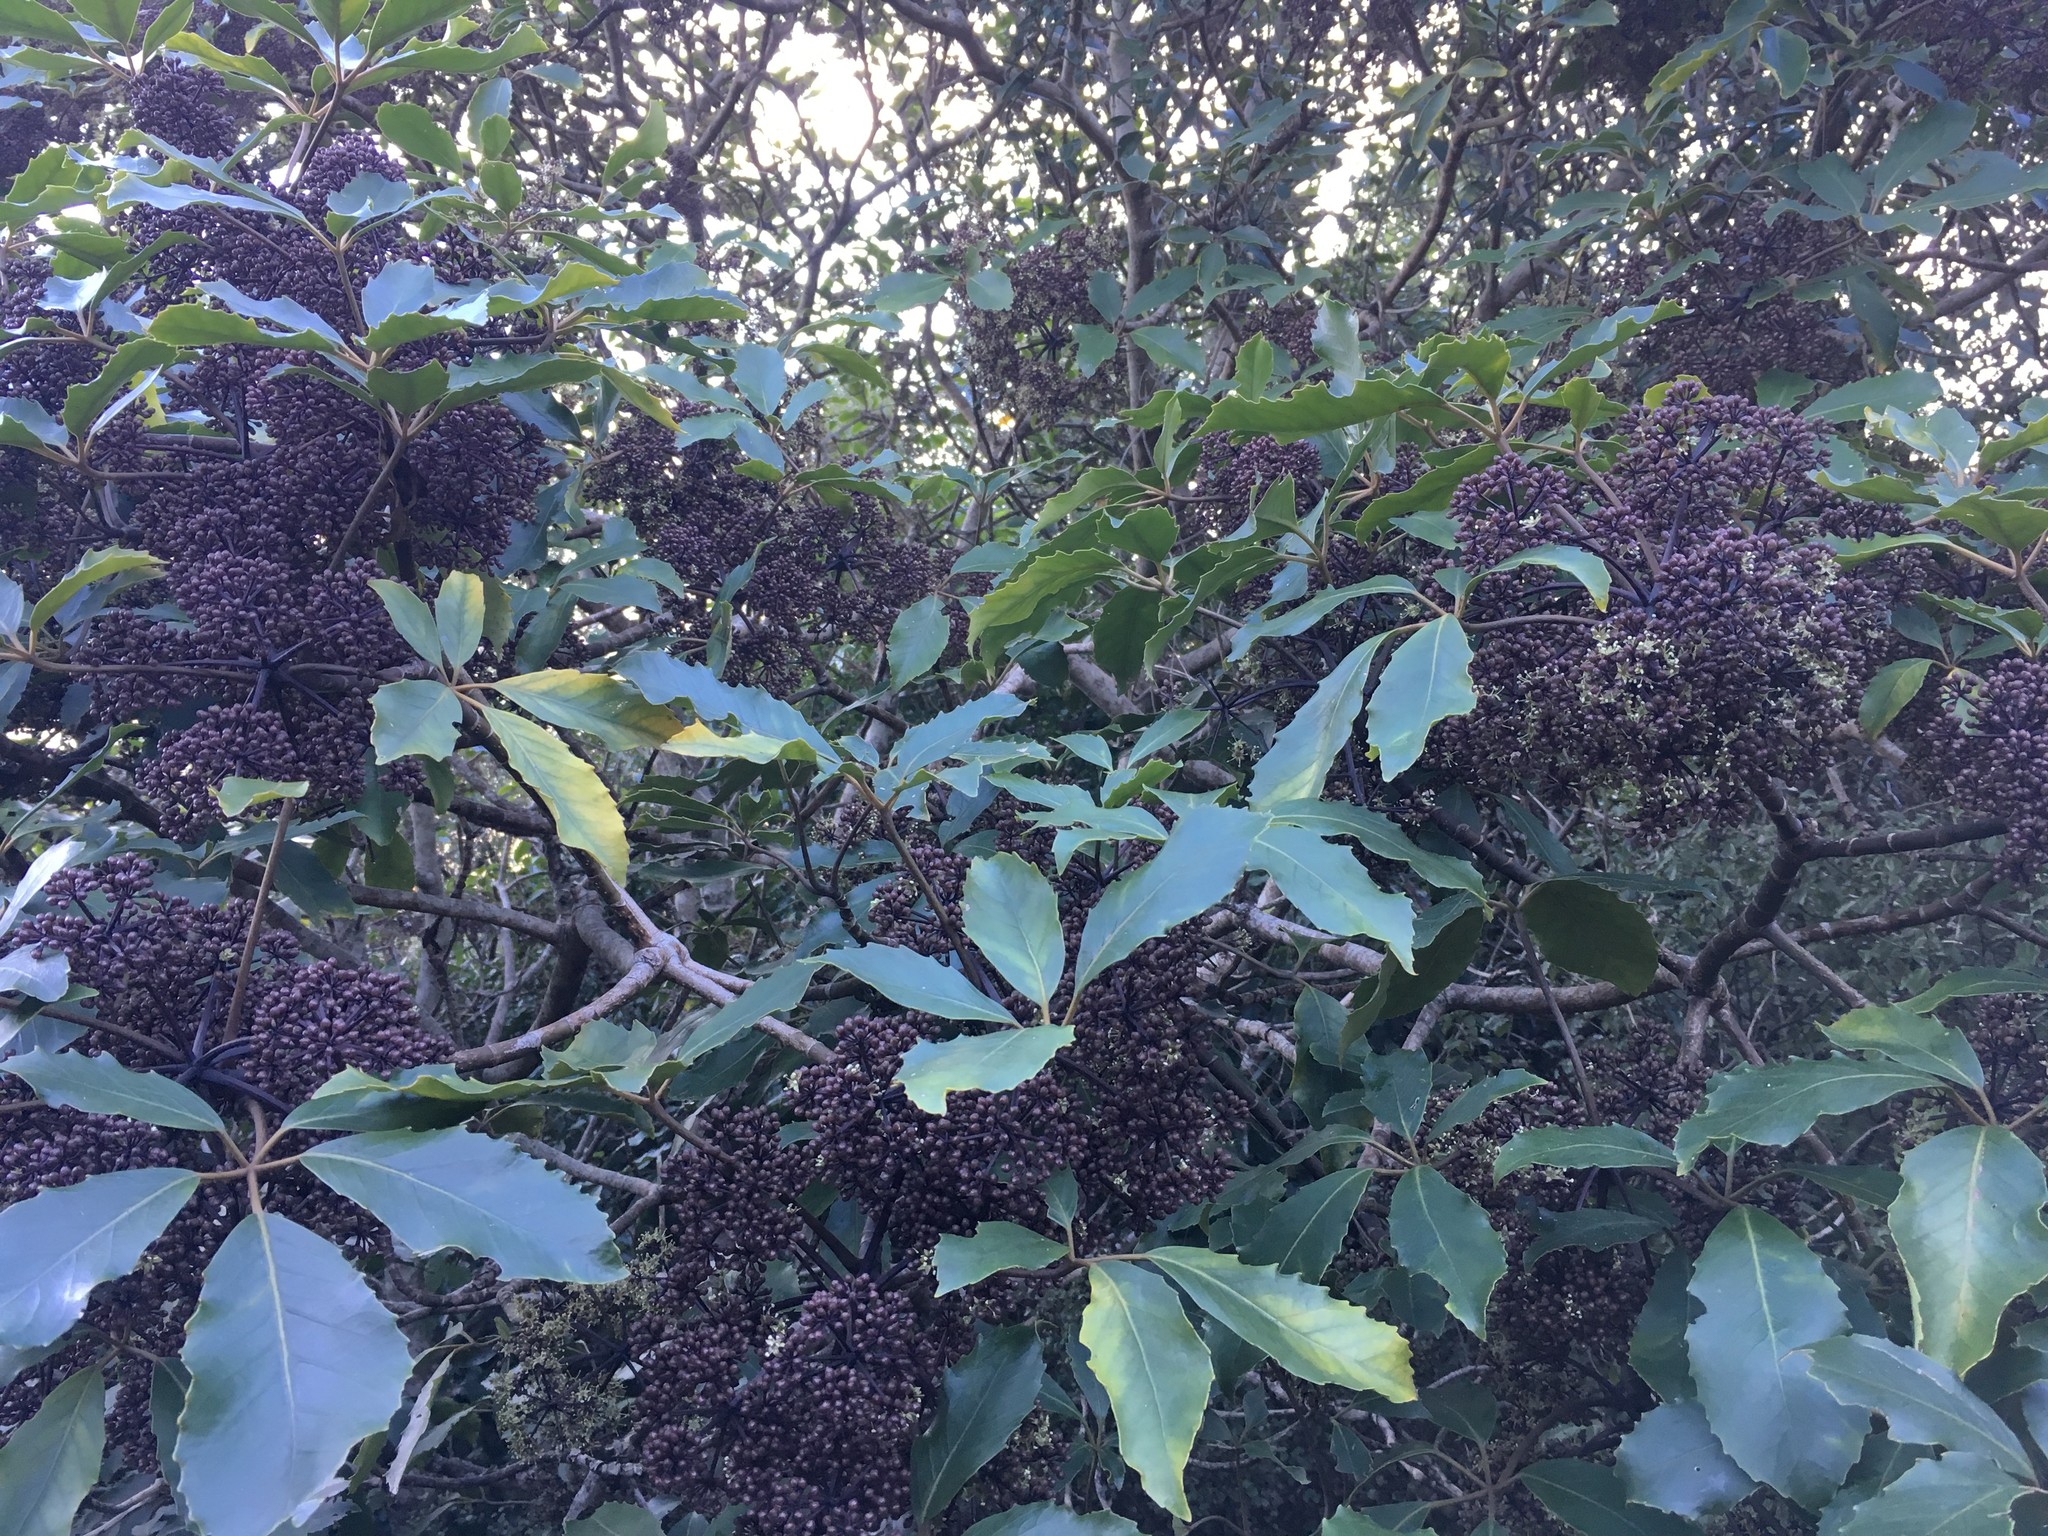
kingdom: Plantae
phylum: Tracheophyta
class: Magnoliopsida
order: Apiales
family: Araliaceae
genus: Neopanax
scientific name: Neopanax arboreus
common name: Five-fingers
